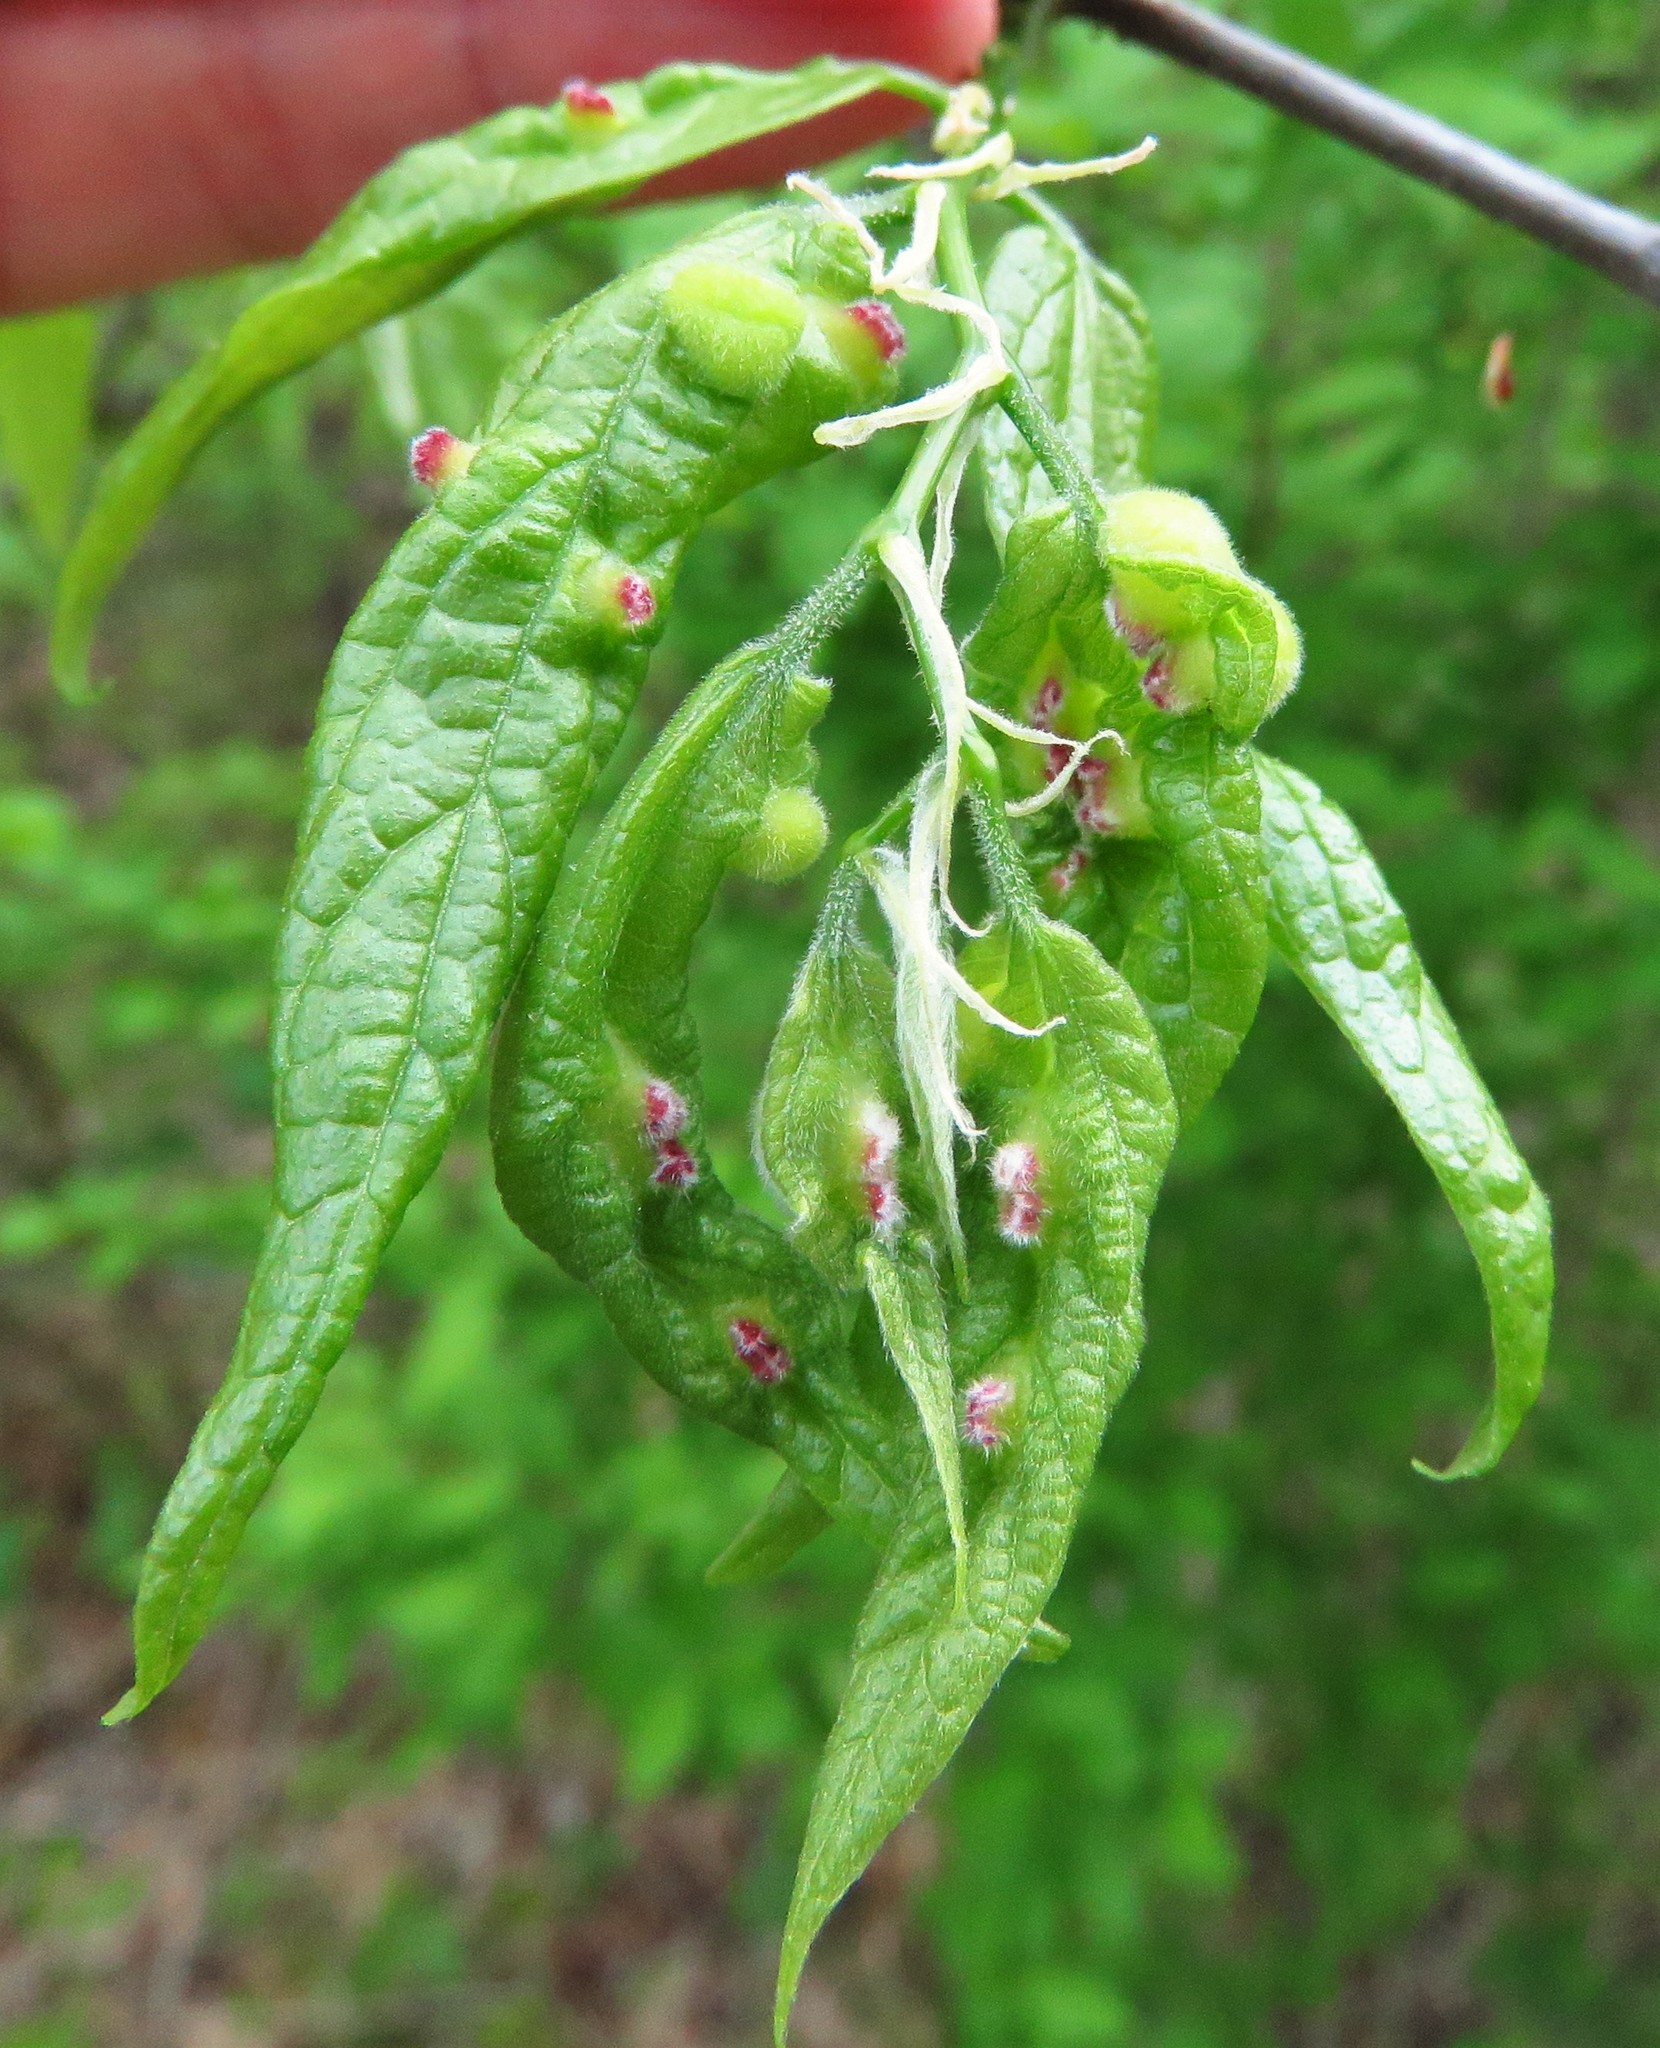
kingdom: Animalia
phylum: Arthropoda
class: Insecta
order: Diptera
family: Cecidomyiidae
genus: Peracecis
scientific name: Peracecis fugitiva
